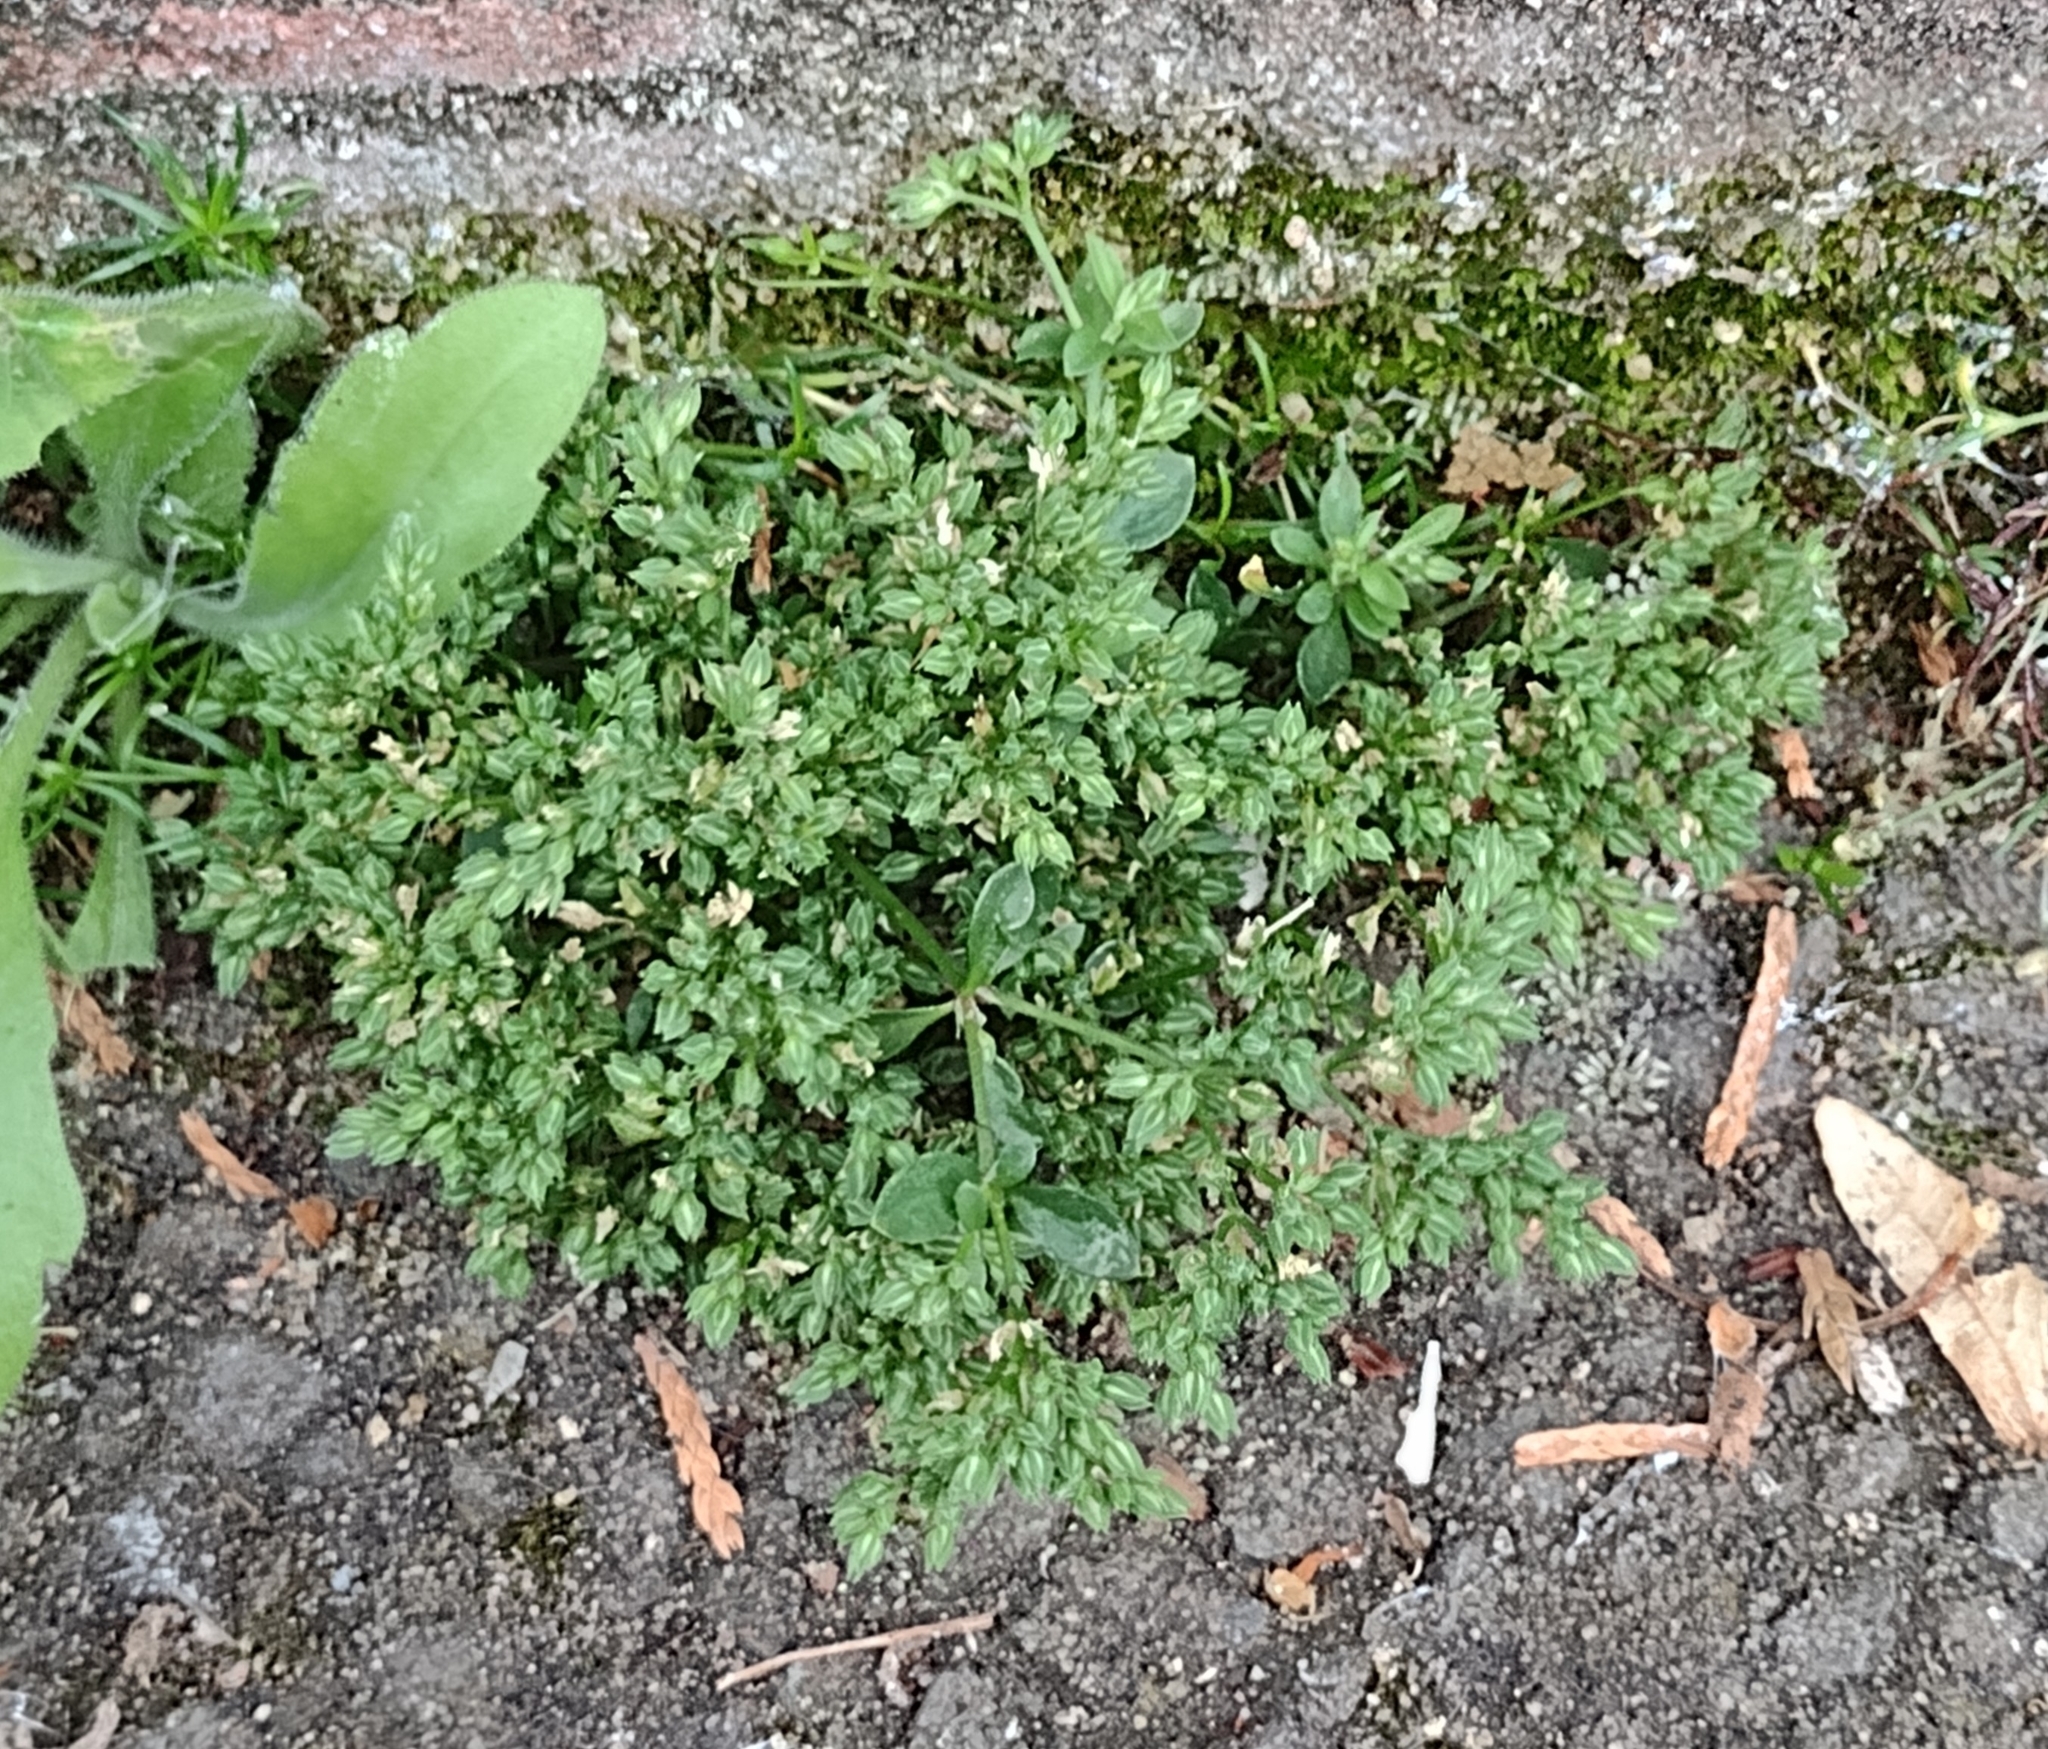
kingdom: Plantae
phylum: Tracheophyta
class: Magnoliopsida
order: Caryophyllales
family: Caryophyllaceae
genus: Polycarpon
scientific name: Polycarpon tetraphyllum
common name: Four-leaved all-seed
